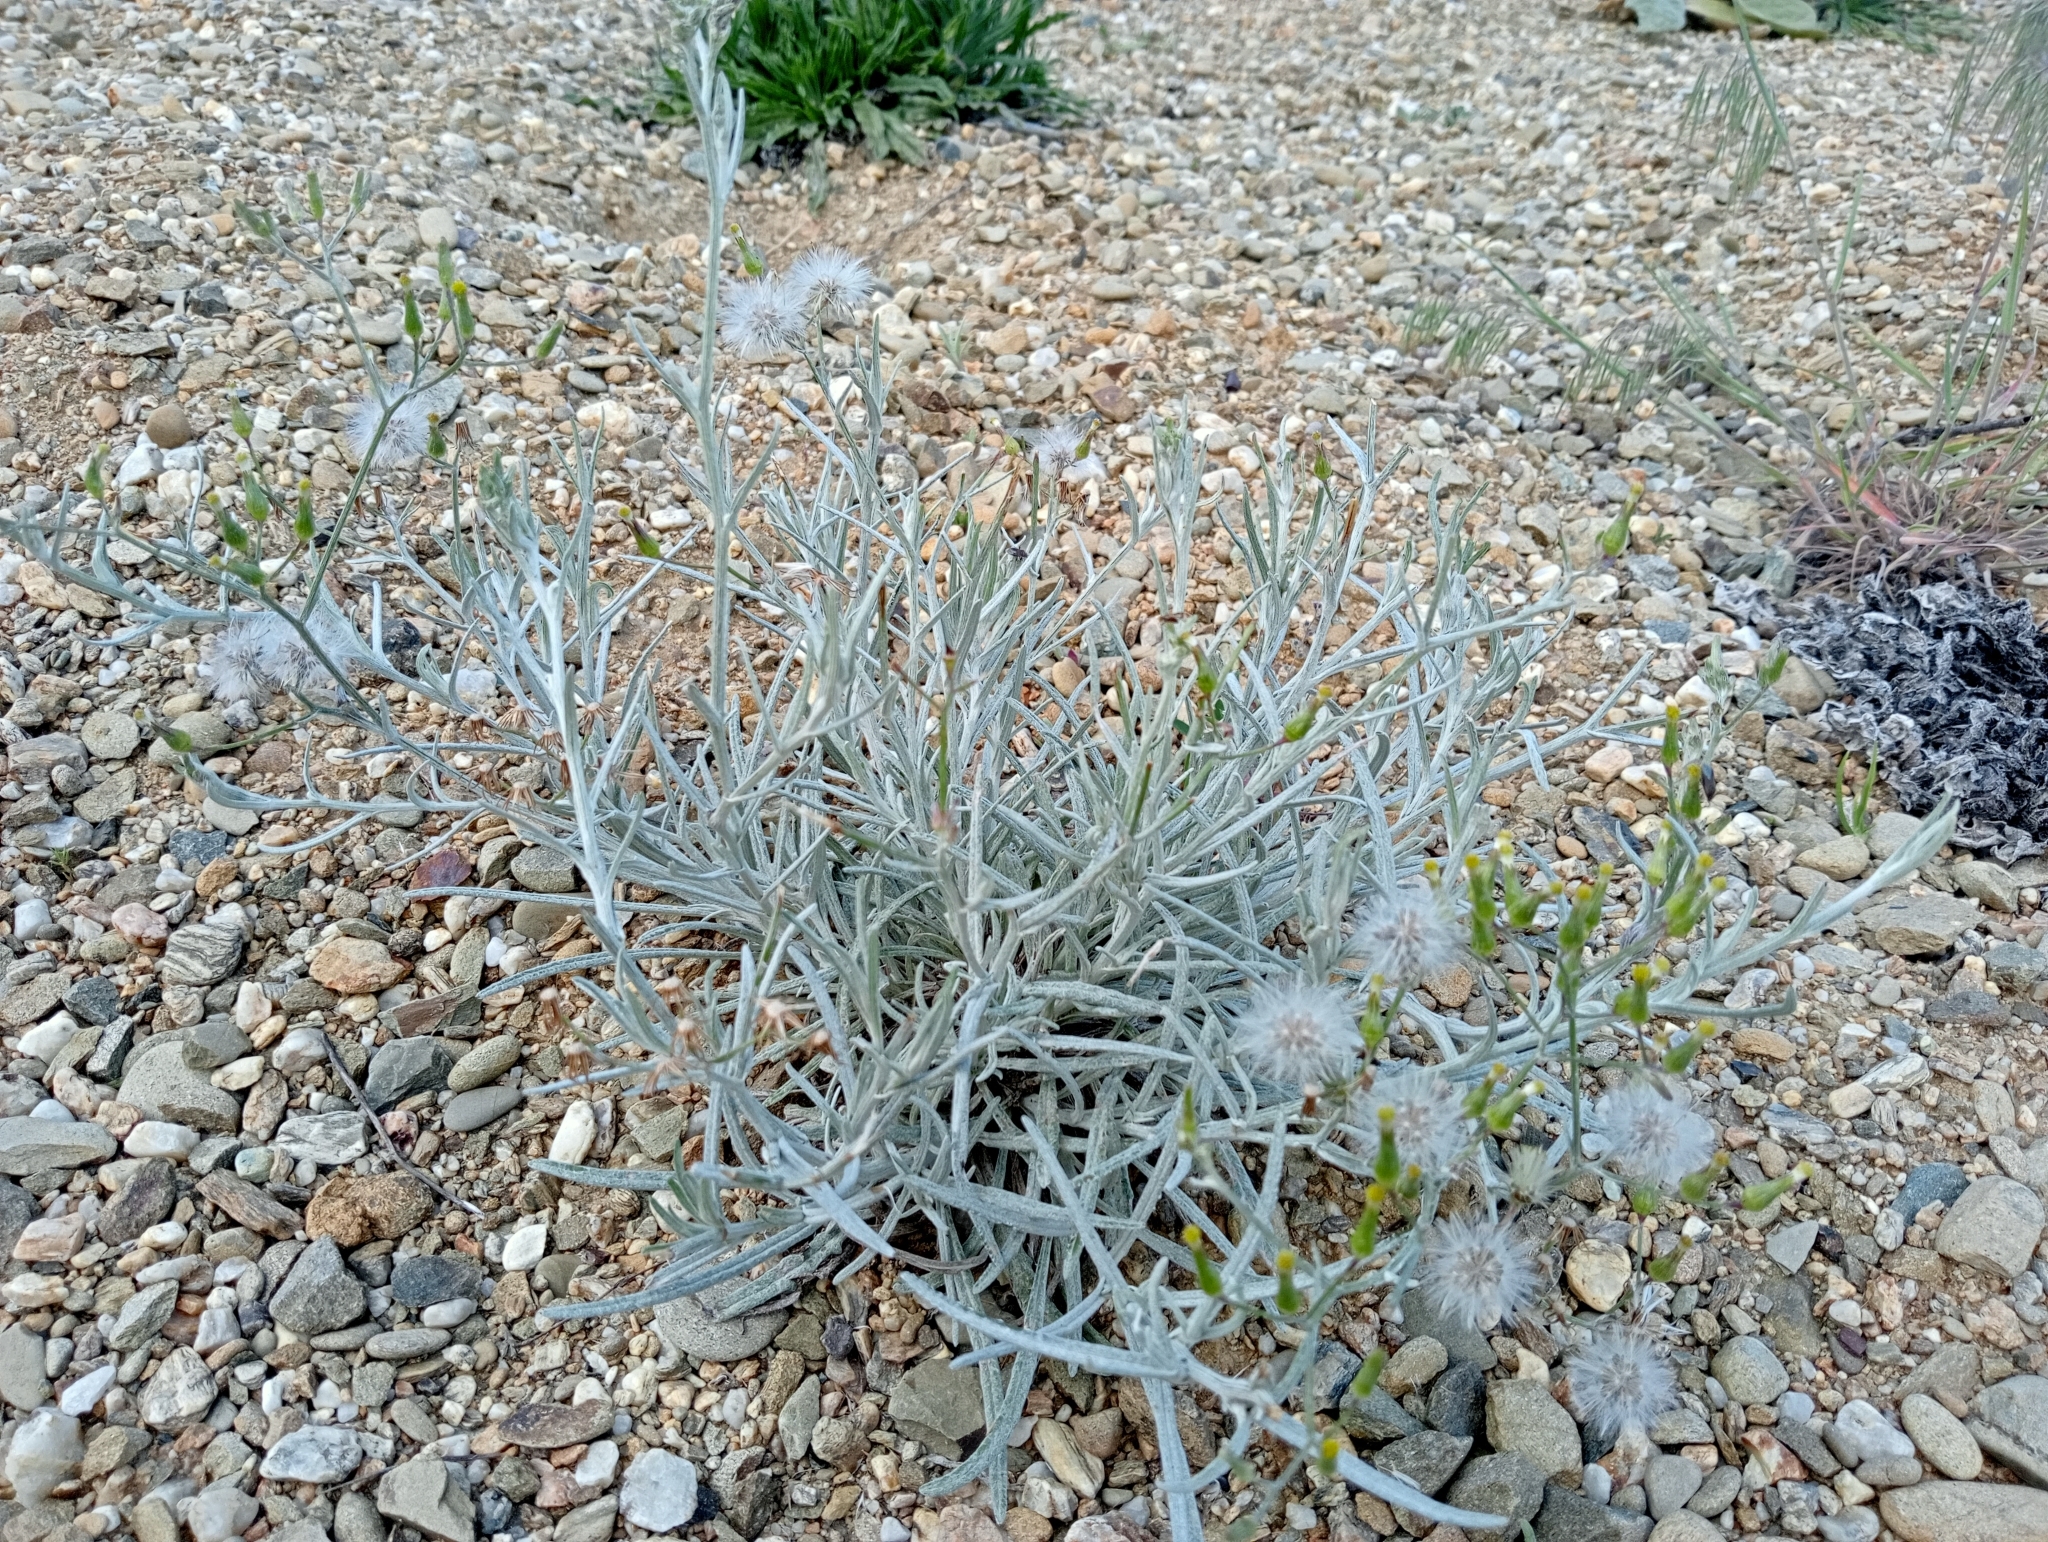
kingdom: Plantae
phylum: Tracheophyta
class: Magnoliopsida
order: Asterales
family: Asteraceae
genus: Senecio
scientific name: Senecio quadridentatus
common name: Cotton fireweed
